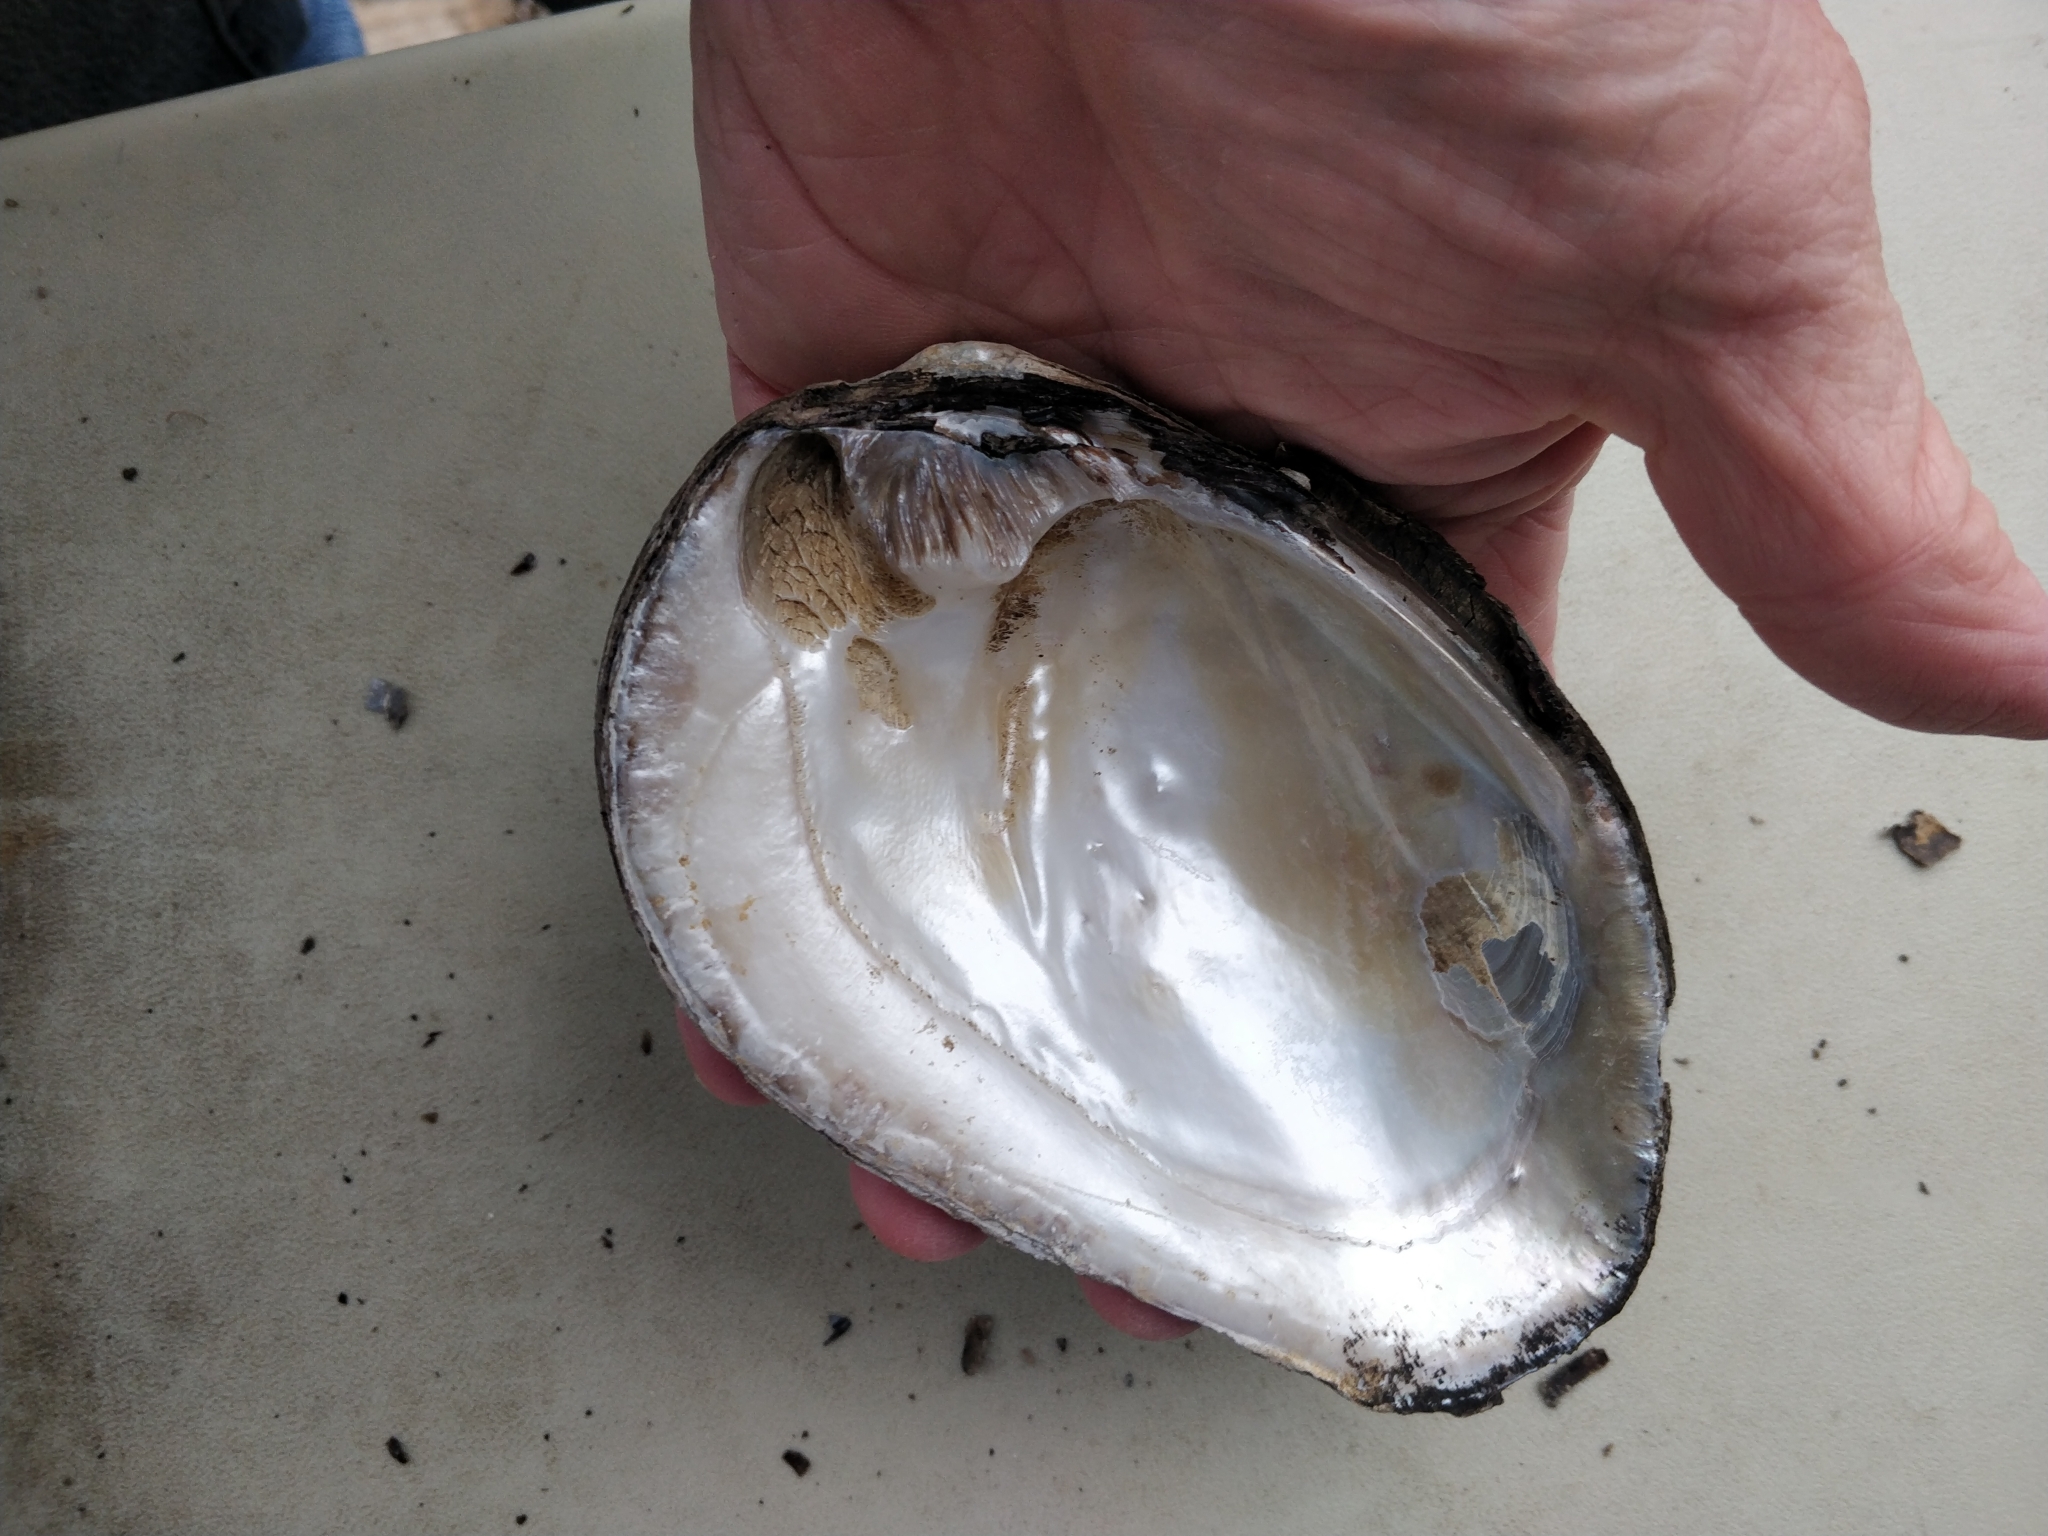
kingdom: Animalia
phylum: Mollusca
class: Bivalvia
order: Unionida
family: Unionidae
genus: Amblema
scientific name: Amblema plicata
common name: Threeridge
